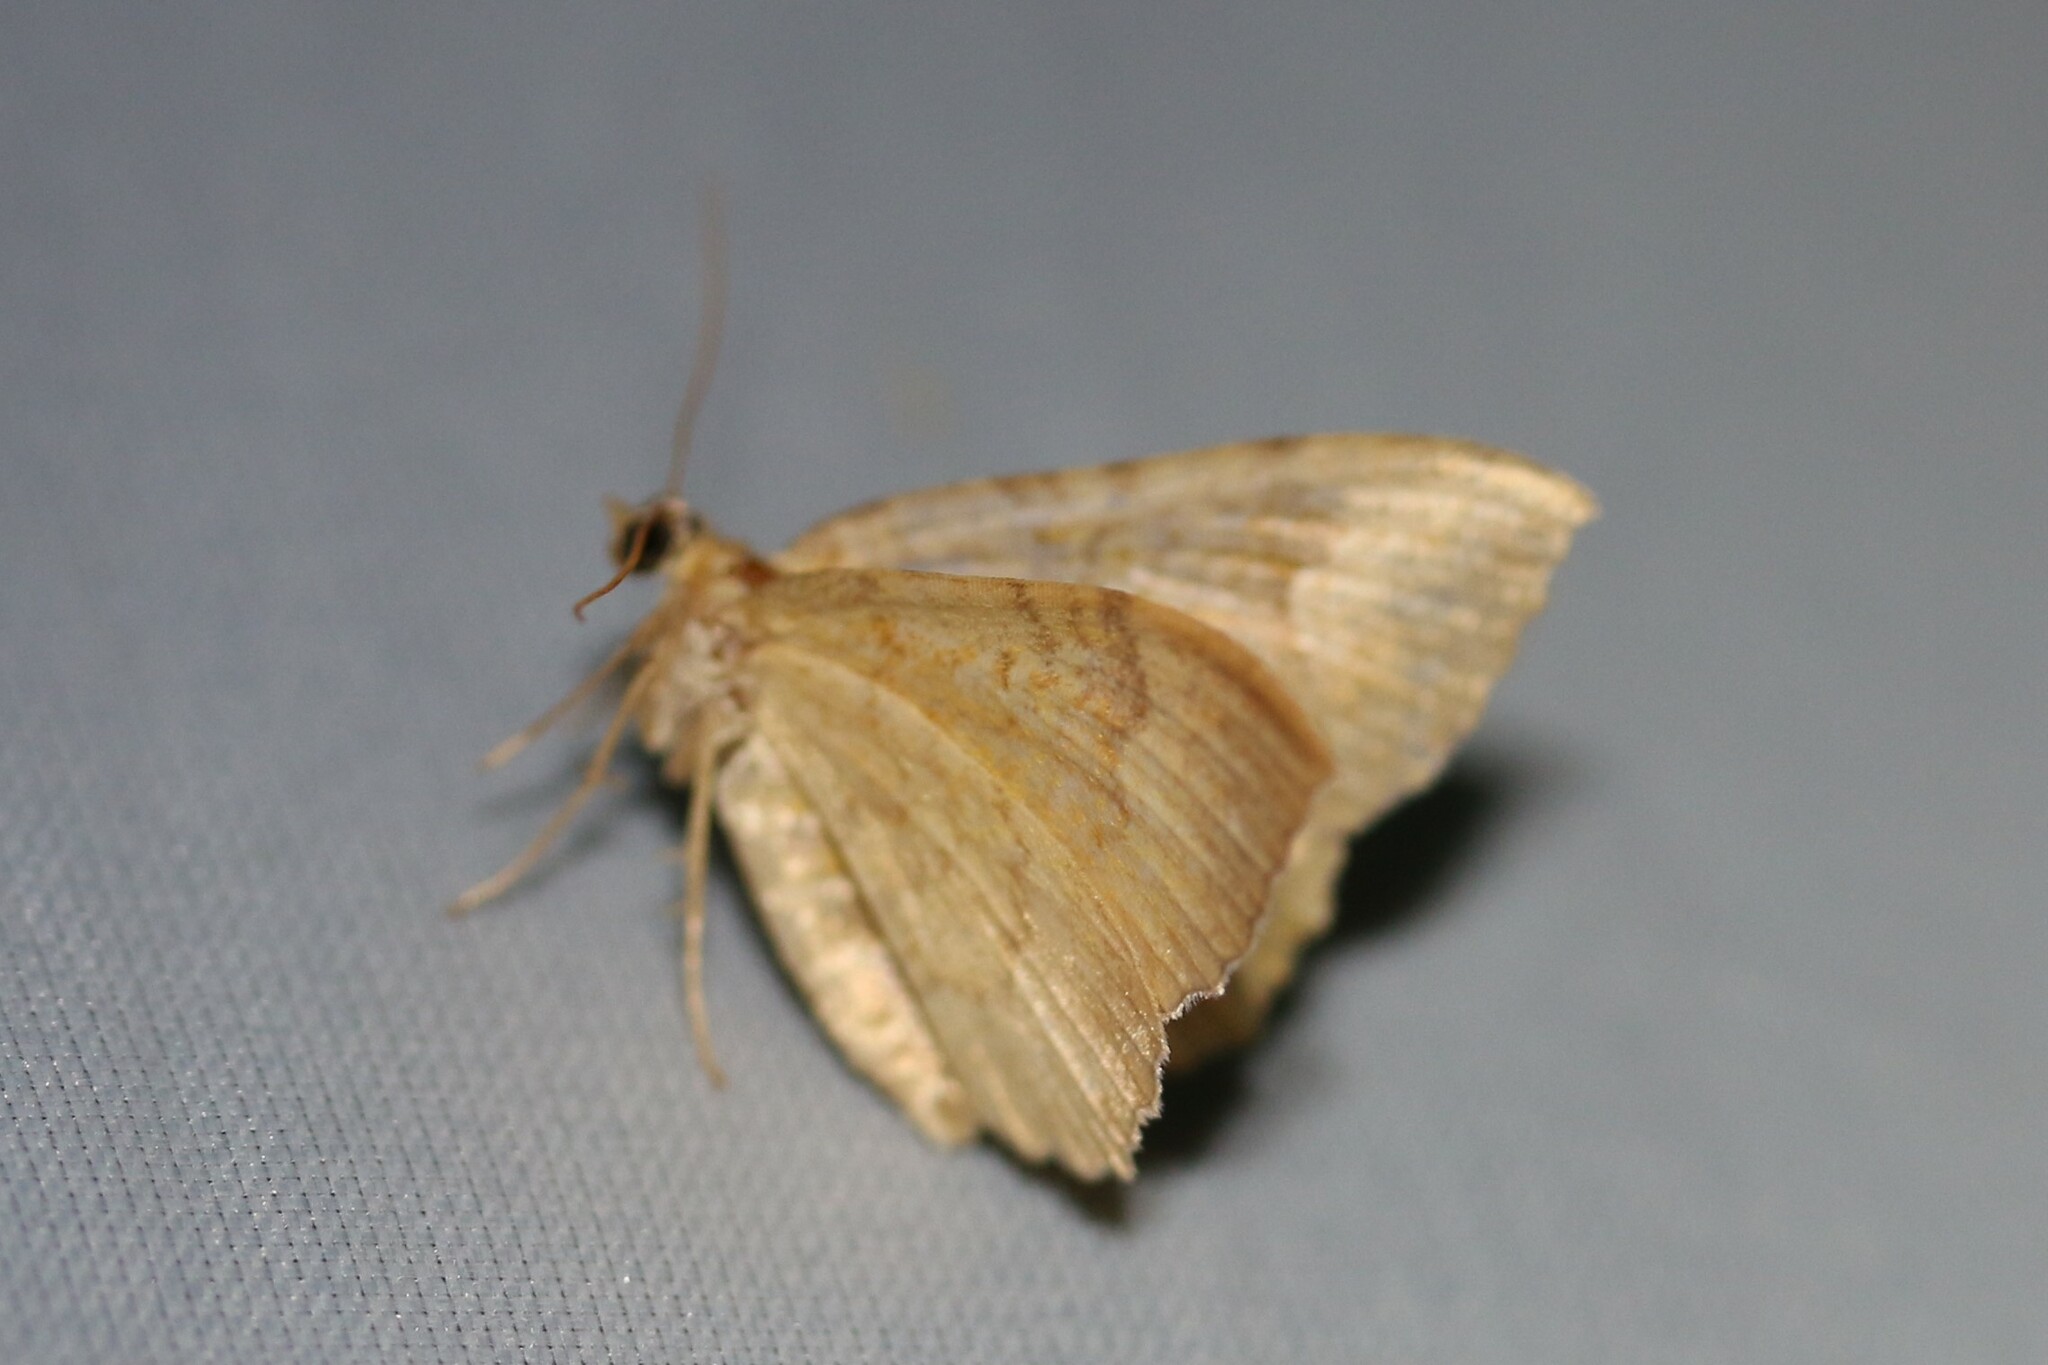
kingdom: Animalia
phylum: Arthropoda
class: Insecta
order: Lepidoptera
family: Geometridae
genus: Camptogramma
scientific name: Camptogramma bilineata
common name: Yellow shell
